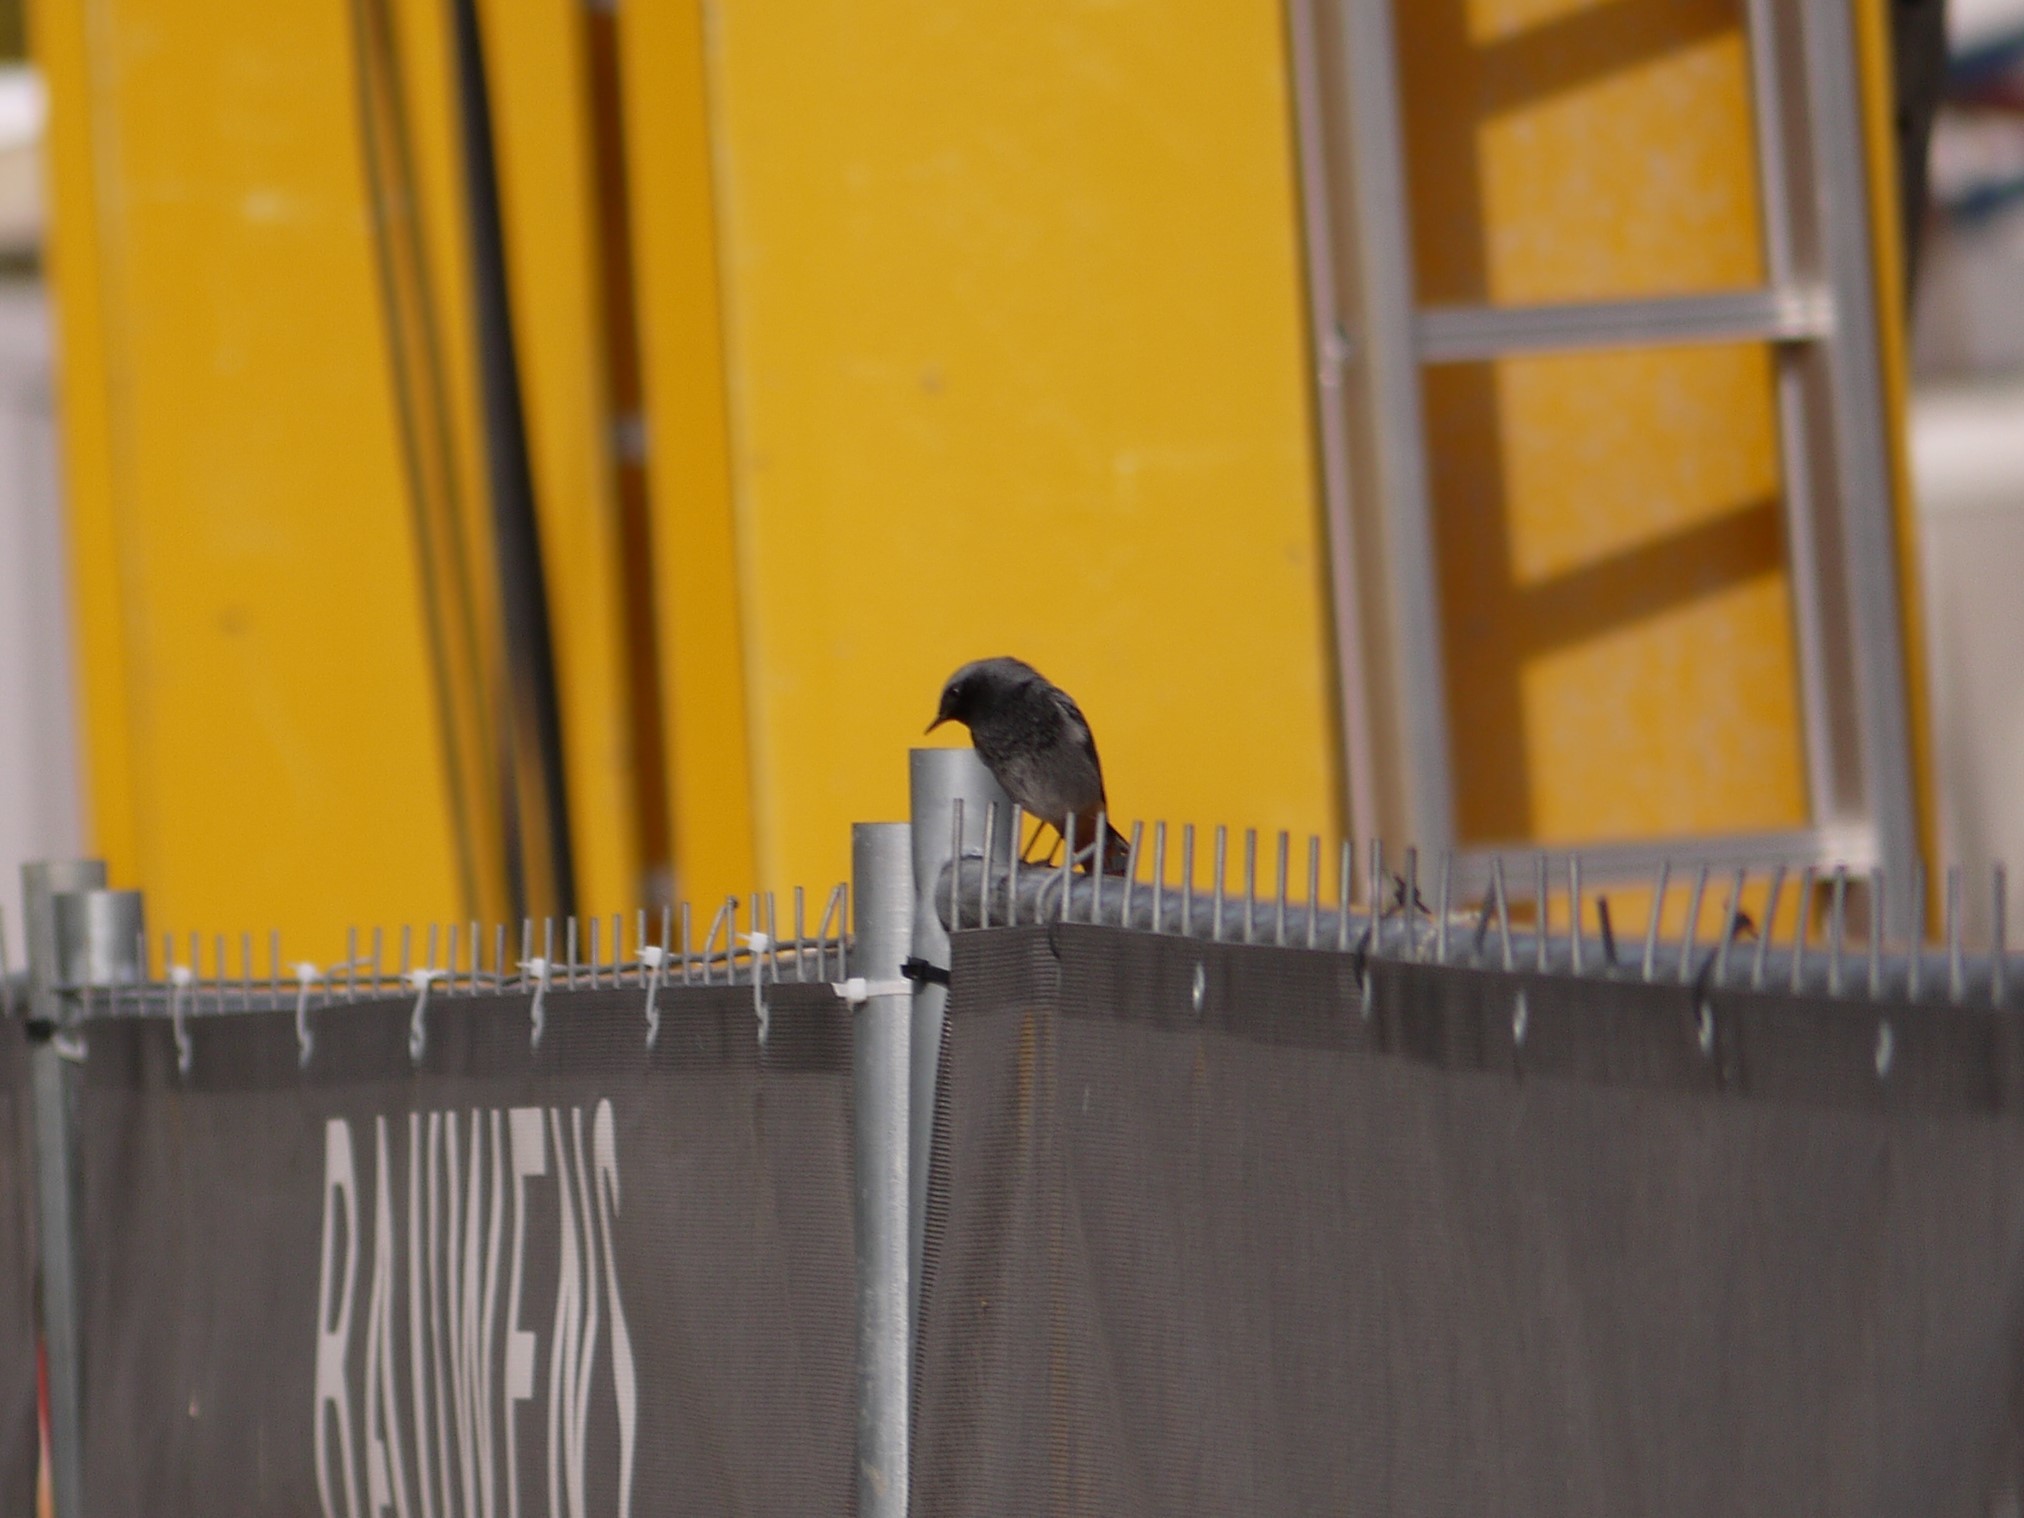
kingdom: Animalia
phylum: Chordata
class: Aves
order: Passeriformes
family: Muscicapidae
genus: Phoenicurus
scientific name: Phoenicurus ochruros
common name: Black redstart
